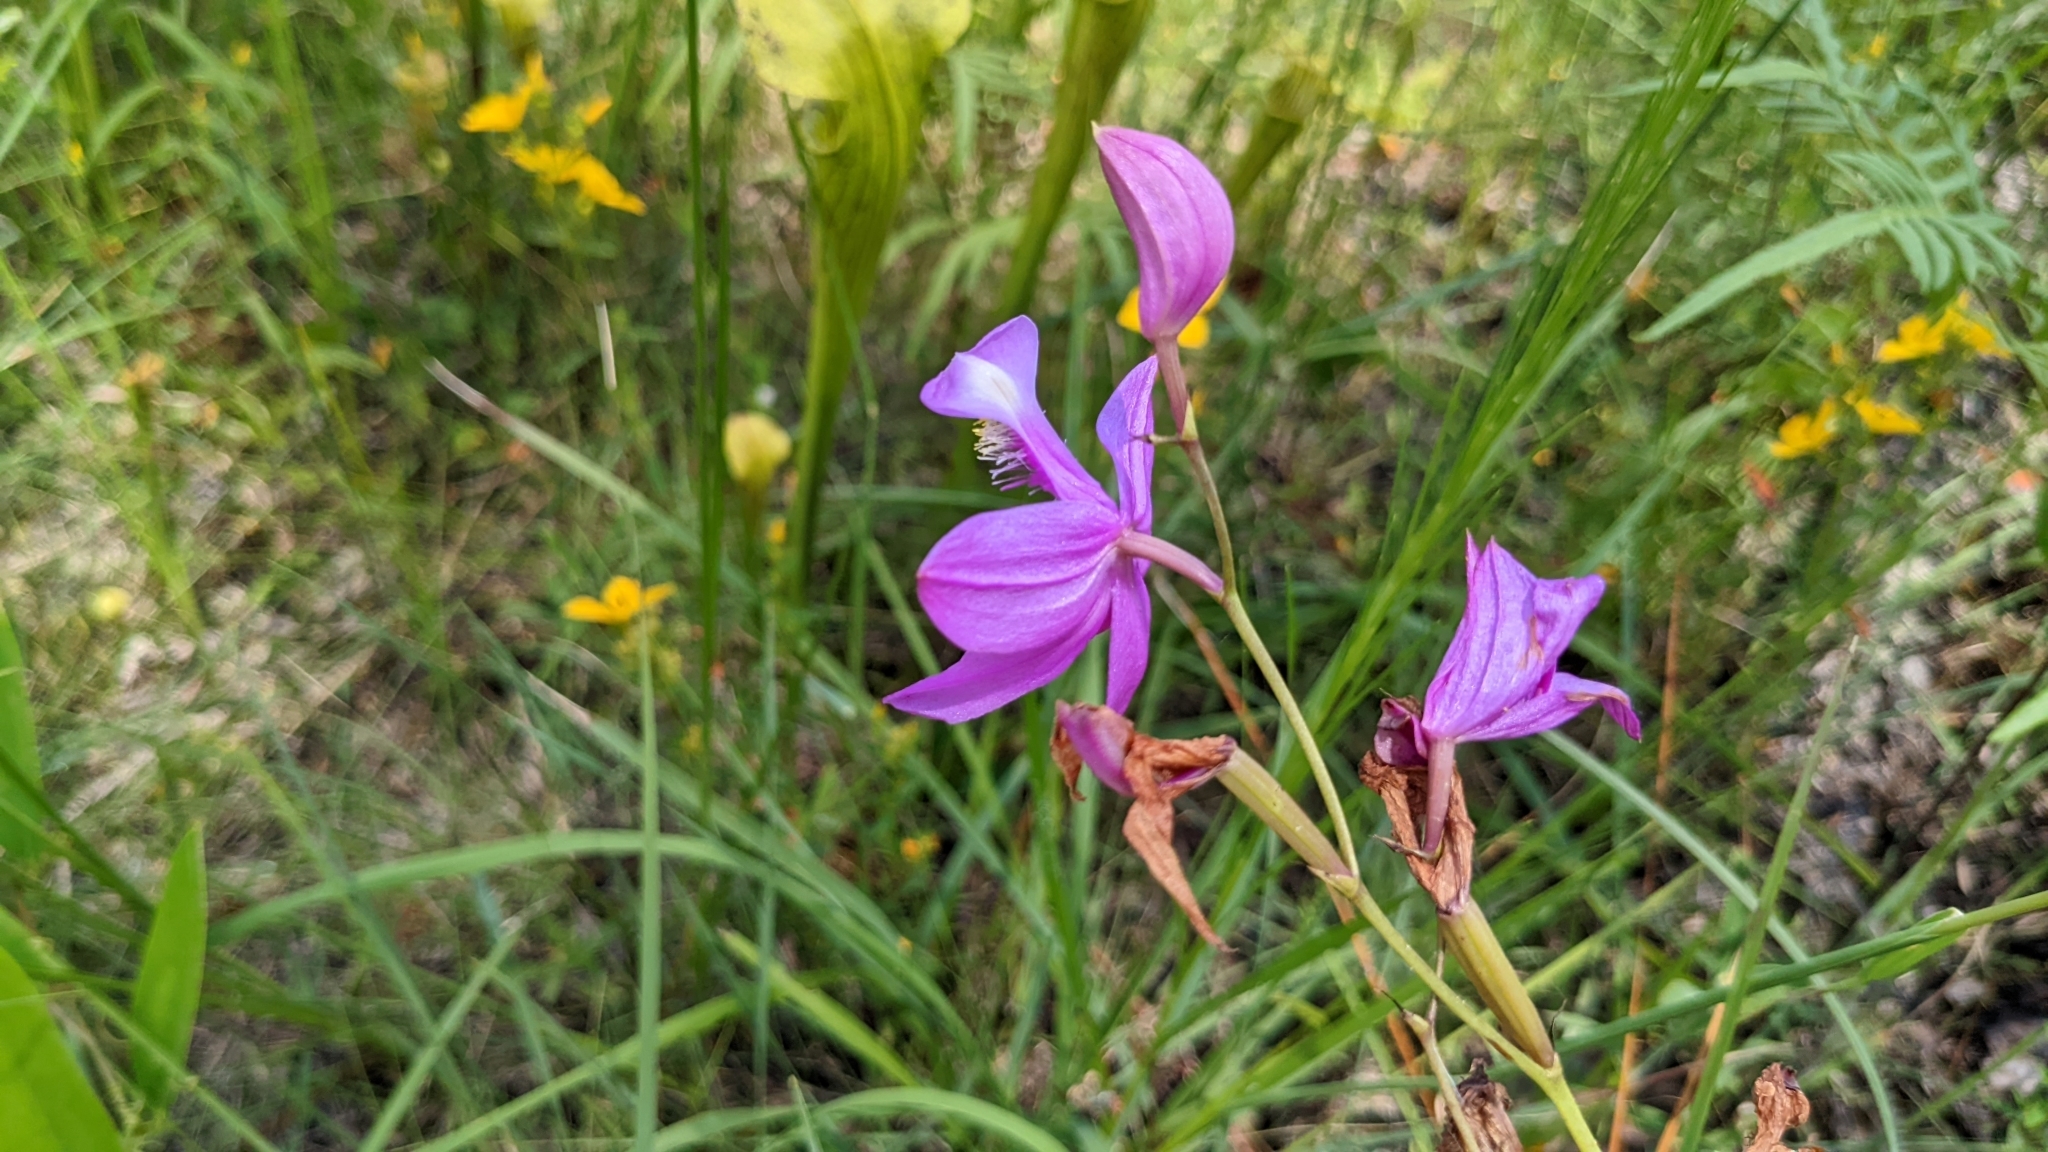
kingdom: Plantae
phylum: Tracheophyta
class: Liliopsida
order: Asparagales
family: Orchidaceae
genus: Calopogon
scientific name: Calopogon tuberosus
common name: Grass-pink
